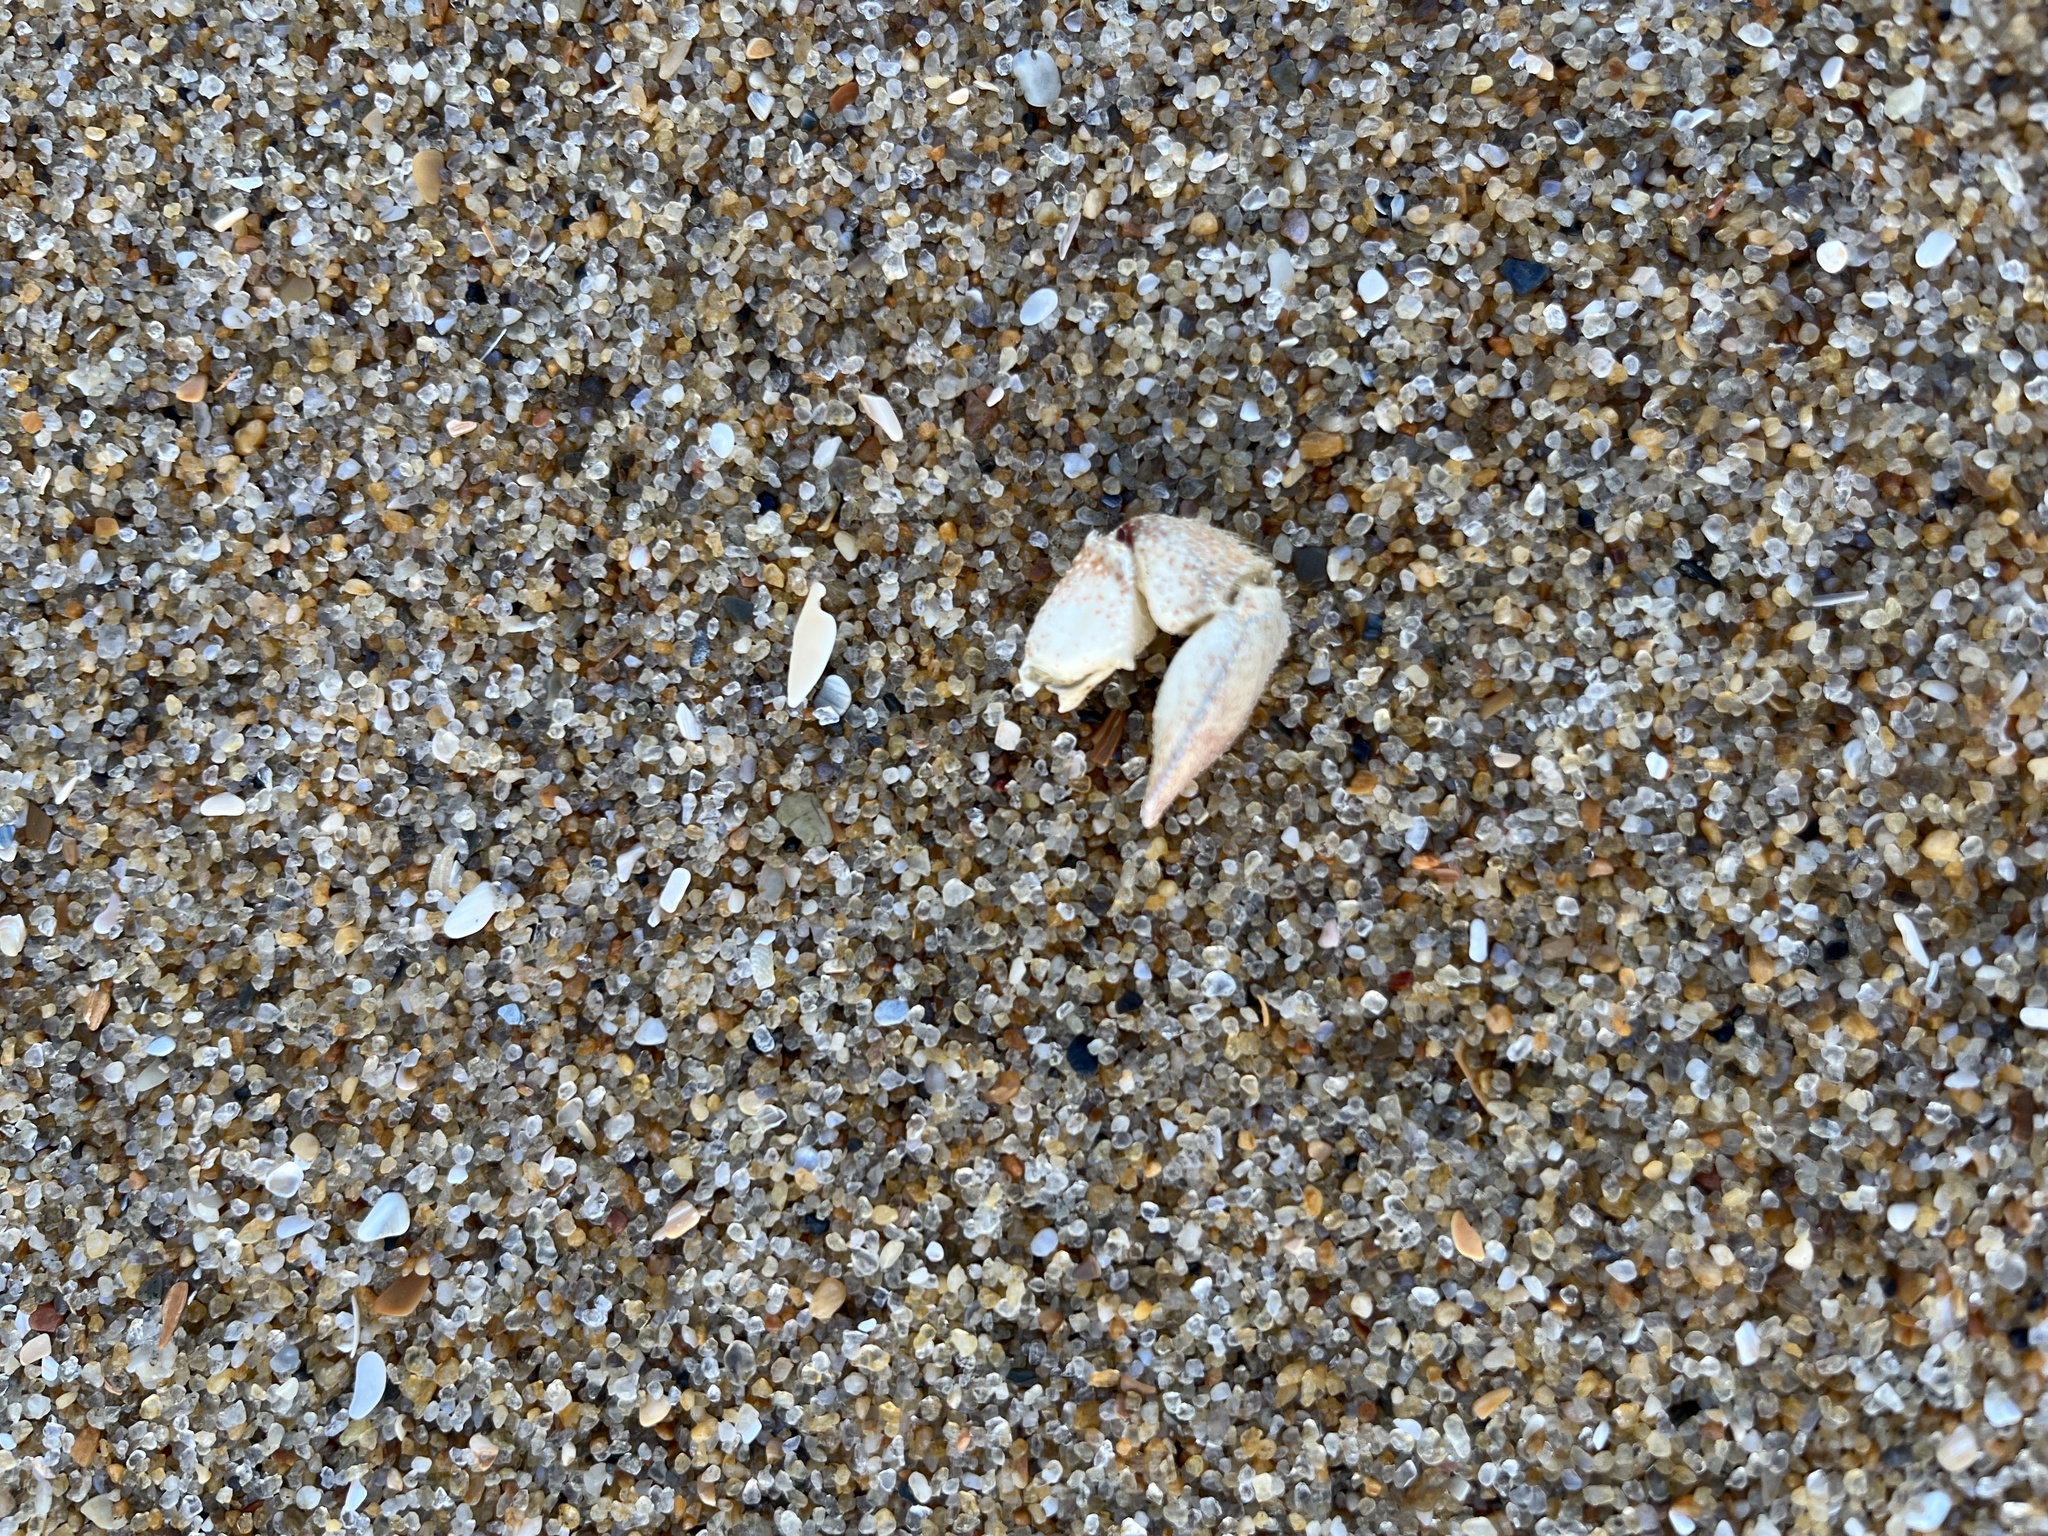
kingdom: Animalia
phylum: Arthropoda
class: Malacostraca
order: Decapoda
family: Paguridae
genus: Pagurus
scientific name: Pagurus pollicaris
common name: Flatclaw hermit
